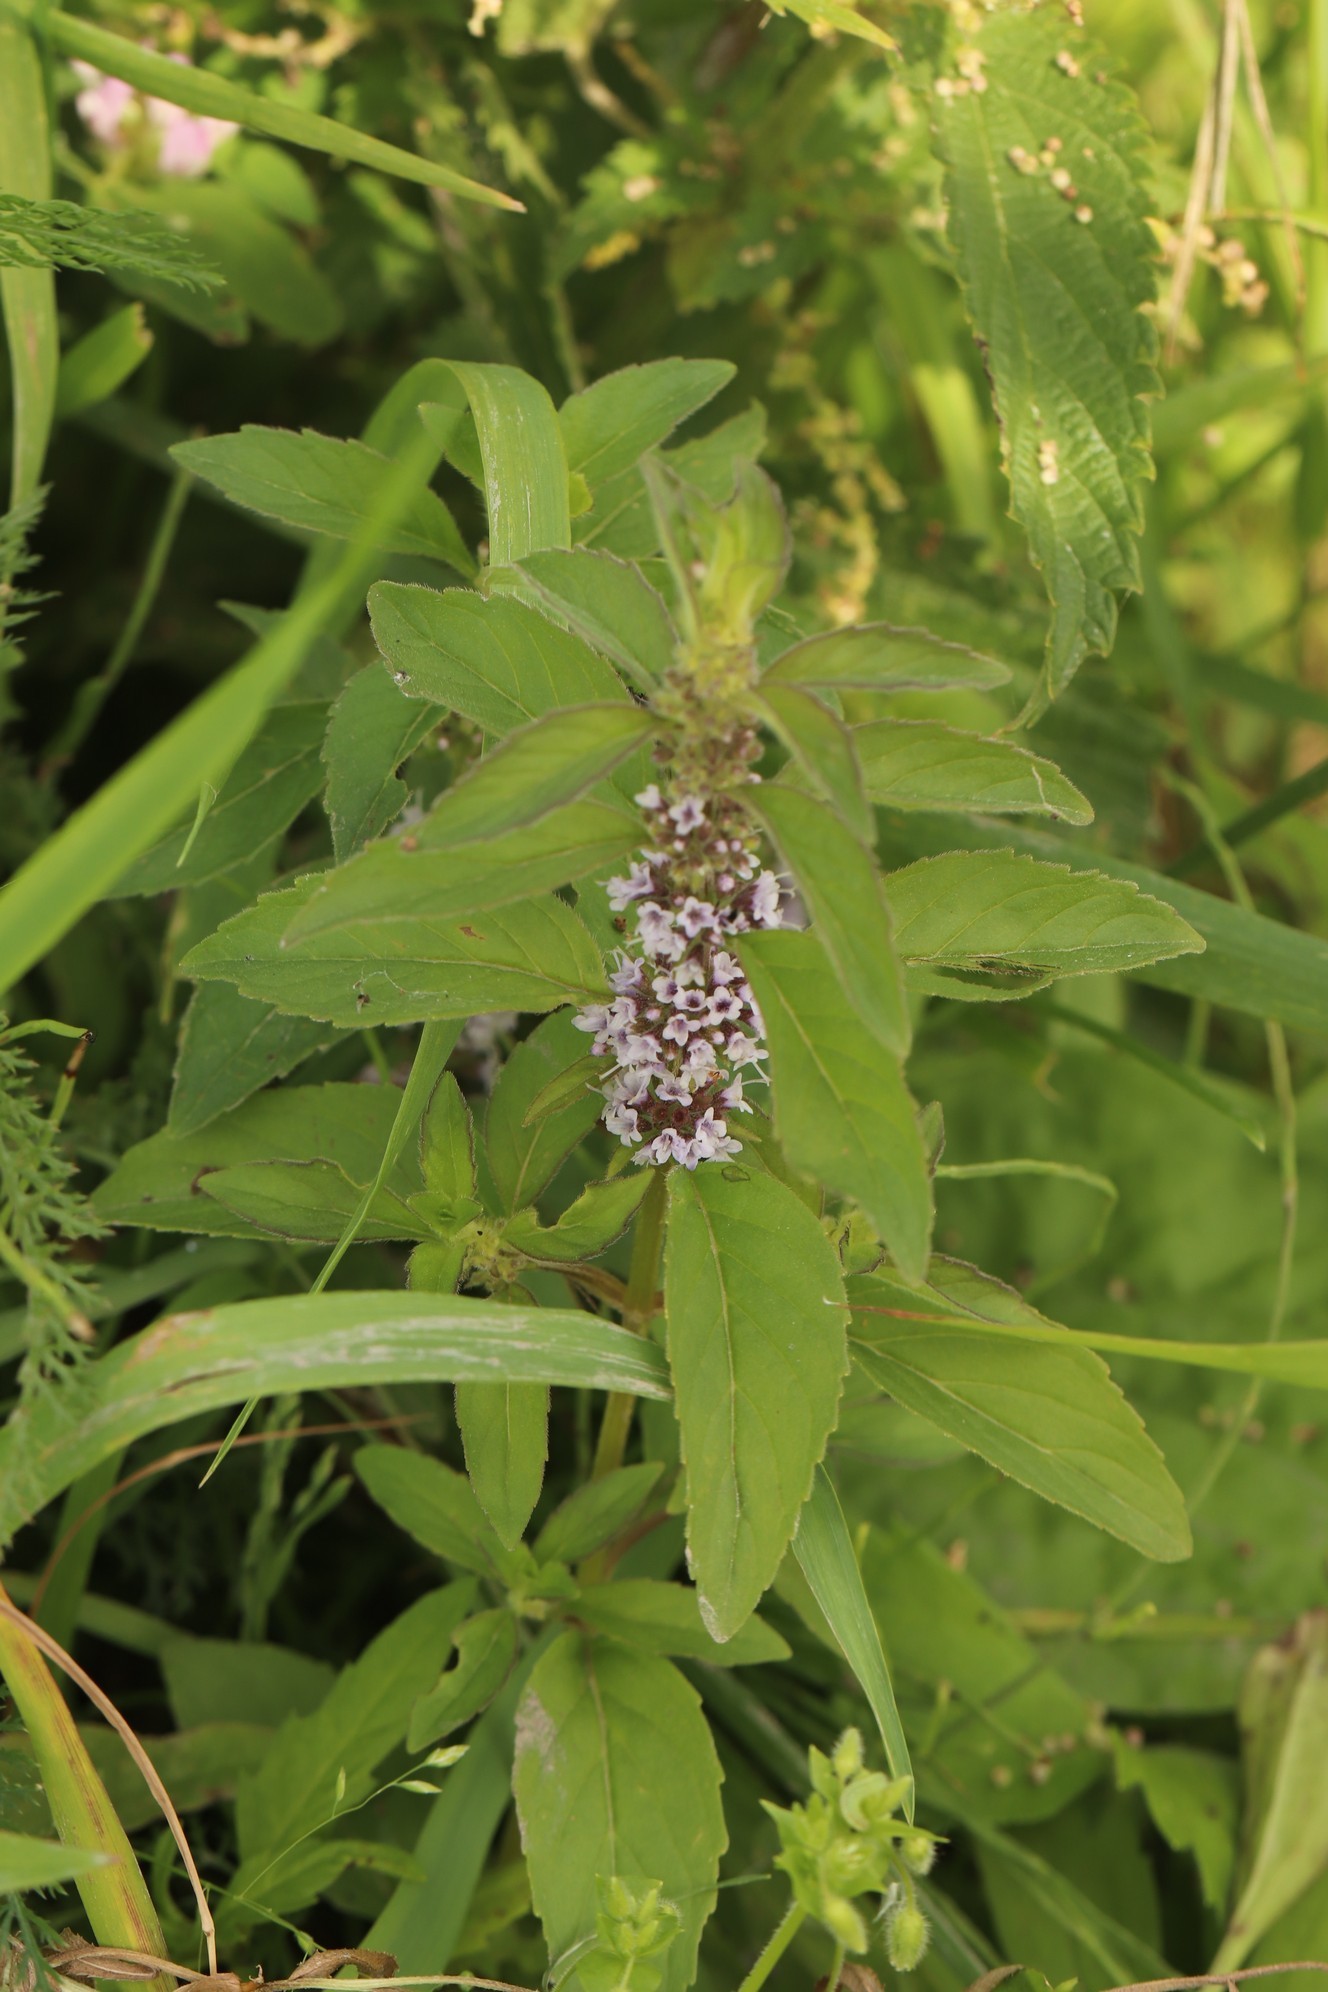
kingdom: Plantae
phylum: Tracheophyta
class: Magnoliopsida
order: Lamiales
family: Lamiaceae
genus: Mentha
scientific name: Mentha arvensis
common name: Corn mint
